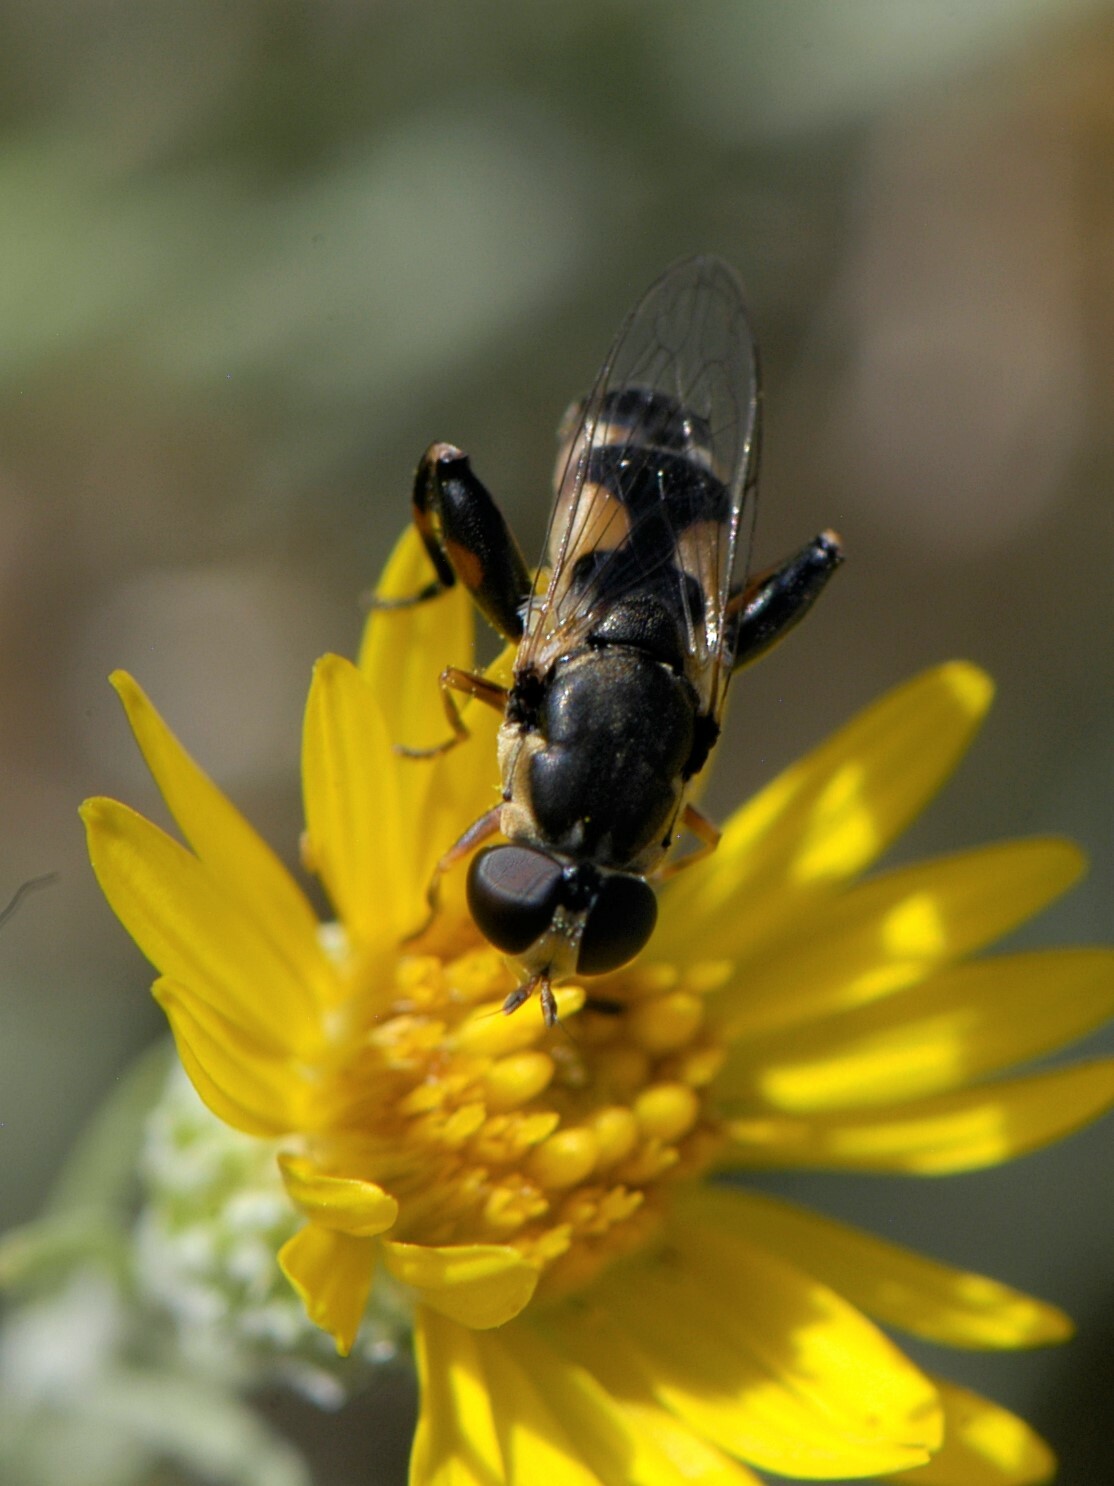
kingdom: Animalia
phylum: Arthropoda
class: Insecta
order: Diptera
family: Syrphidae
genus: Syritta
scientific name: Syritta pipiens
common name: Hover fly
